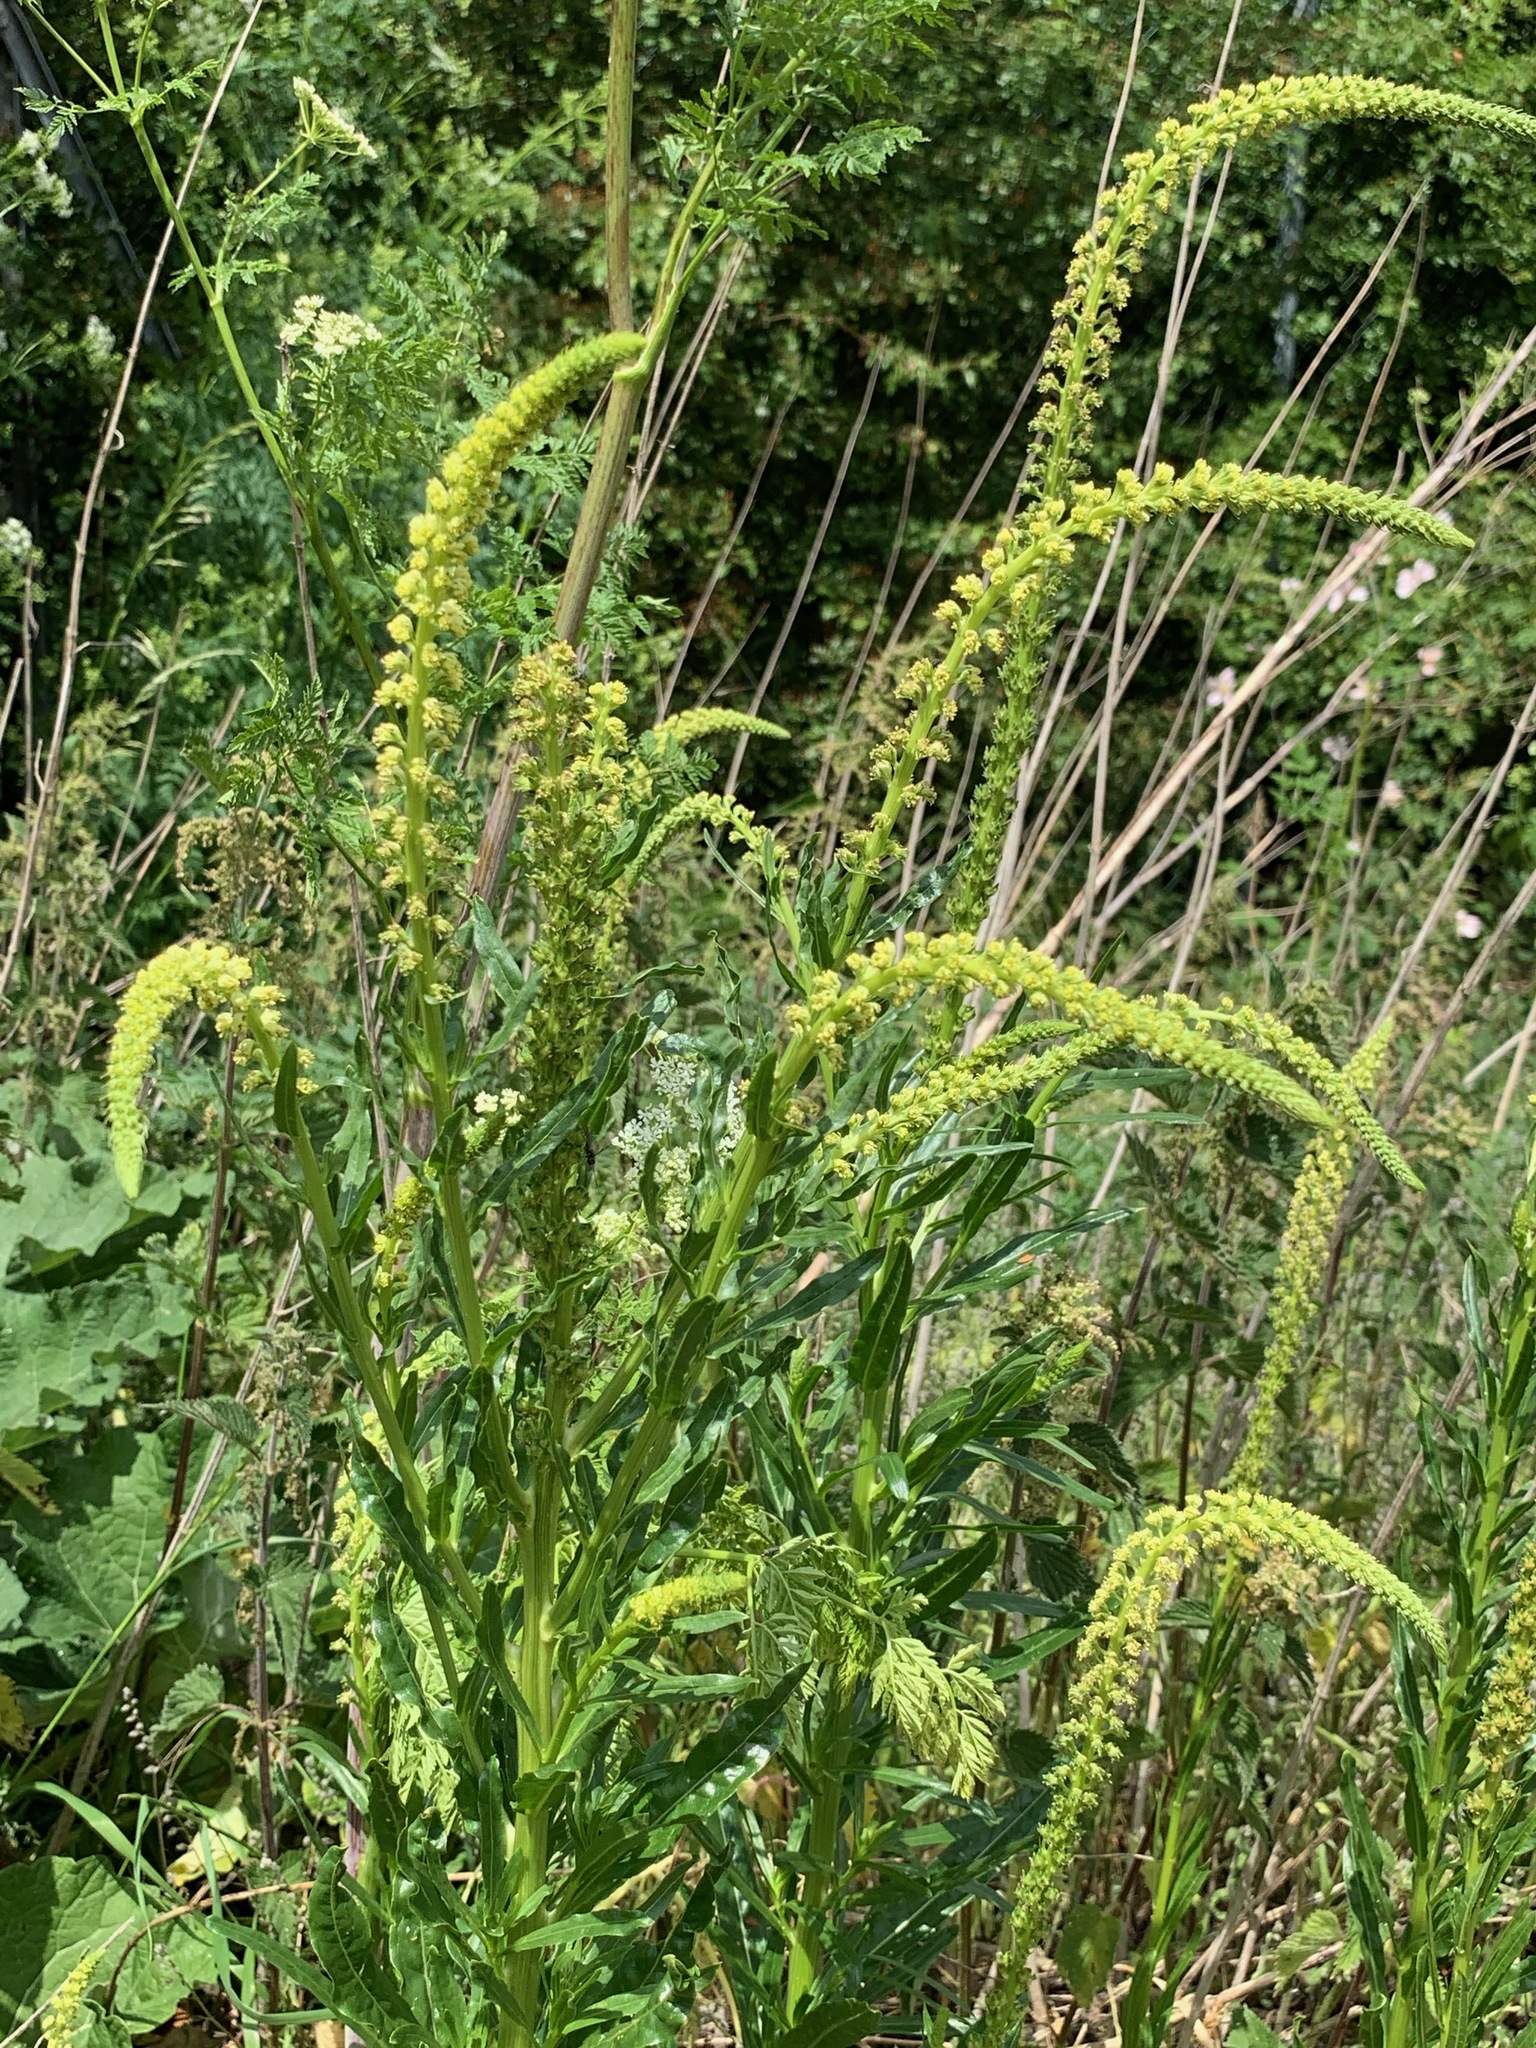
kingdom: Plantae
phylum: Tracheophyta
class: Magnoliopsida
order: Brassicales
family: Resedaceae
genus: Reseda
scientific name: Reseda luteola
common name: Weld
